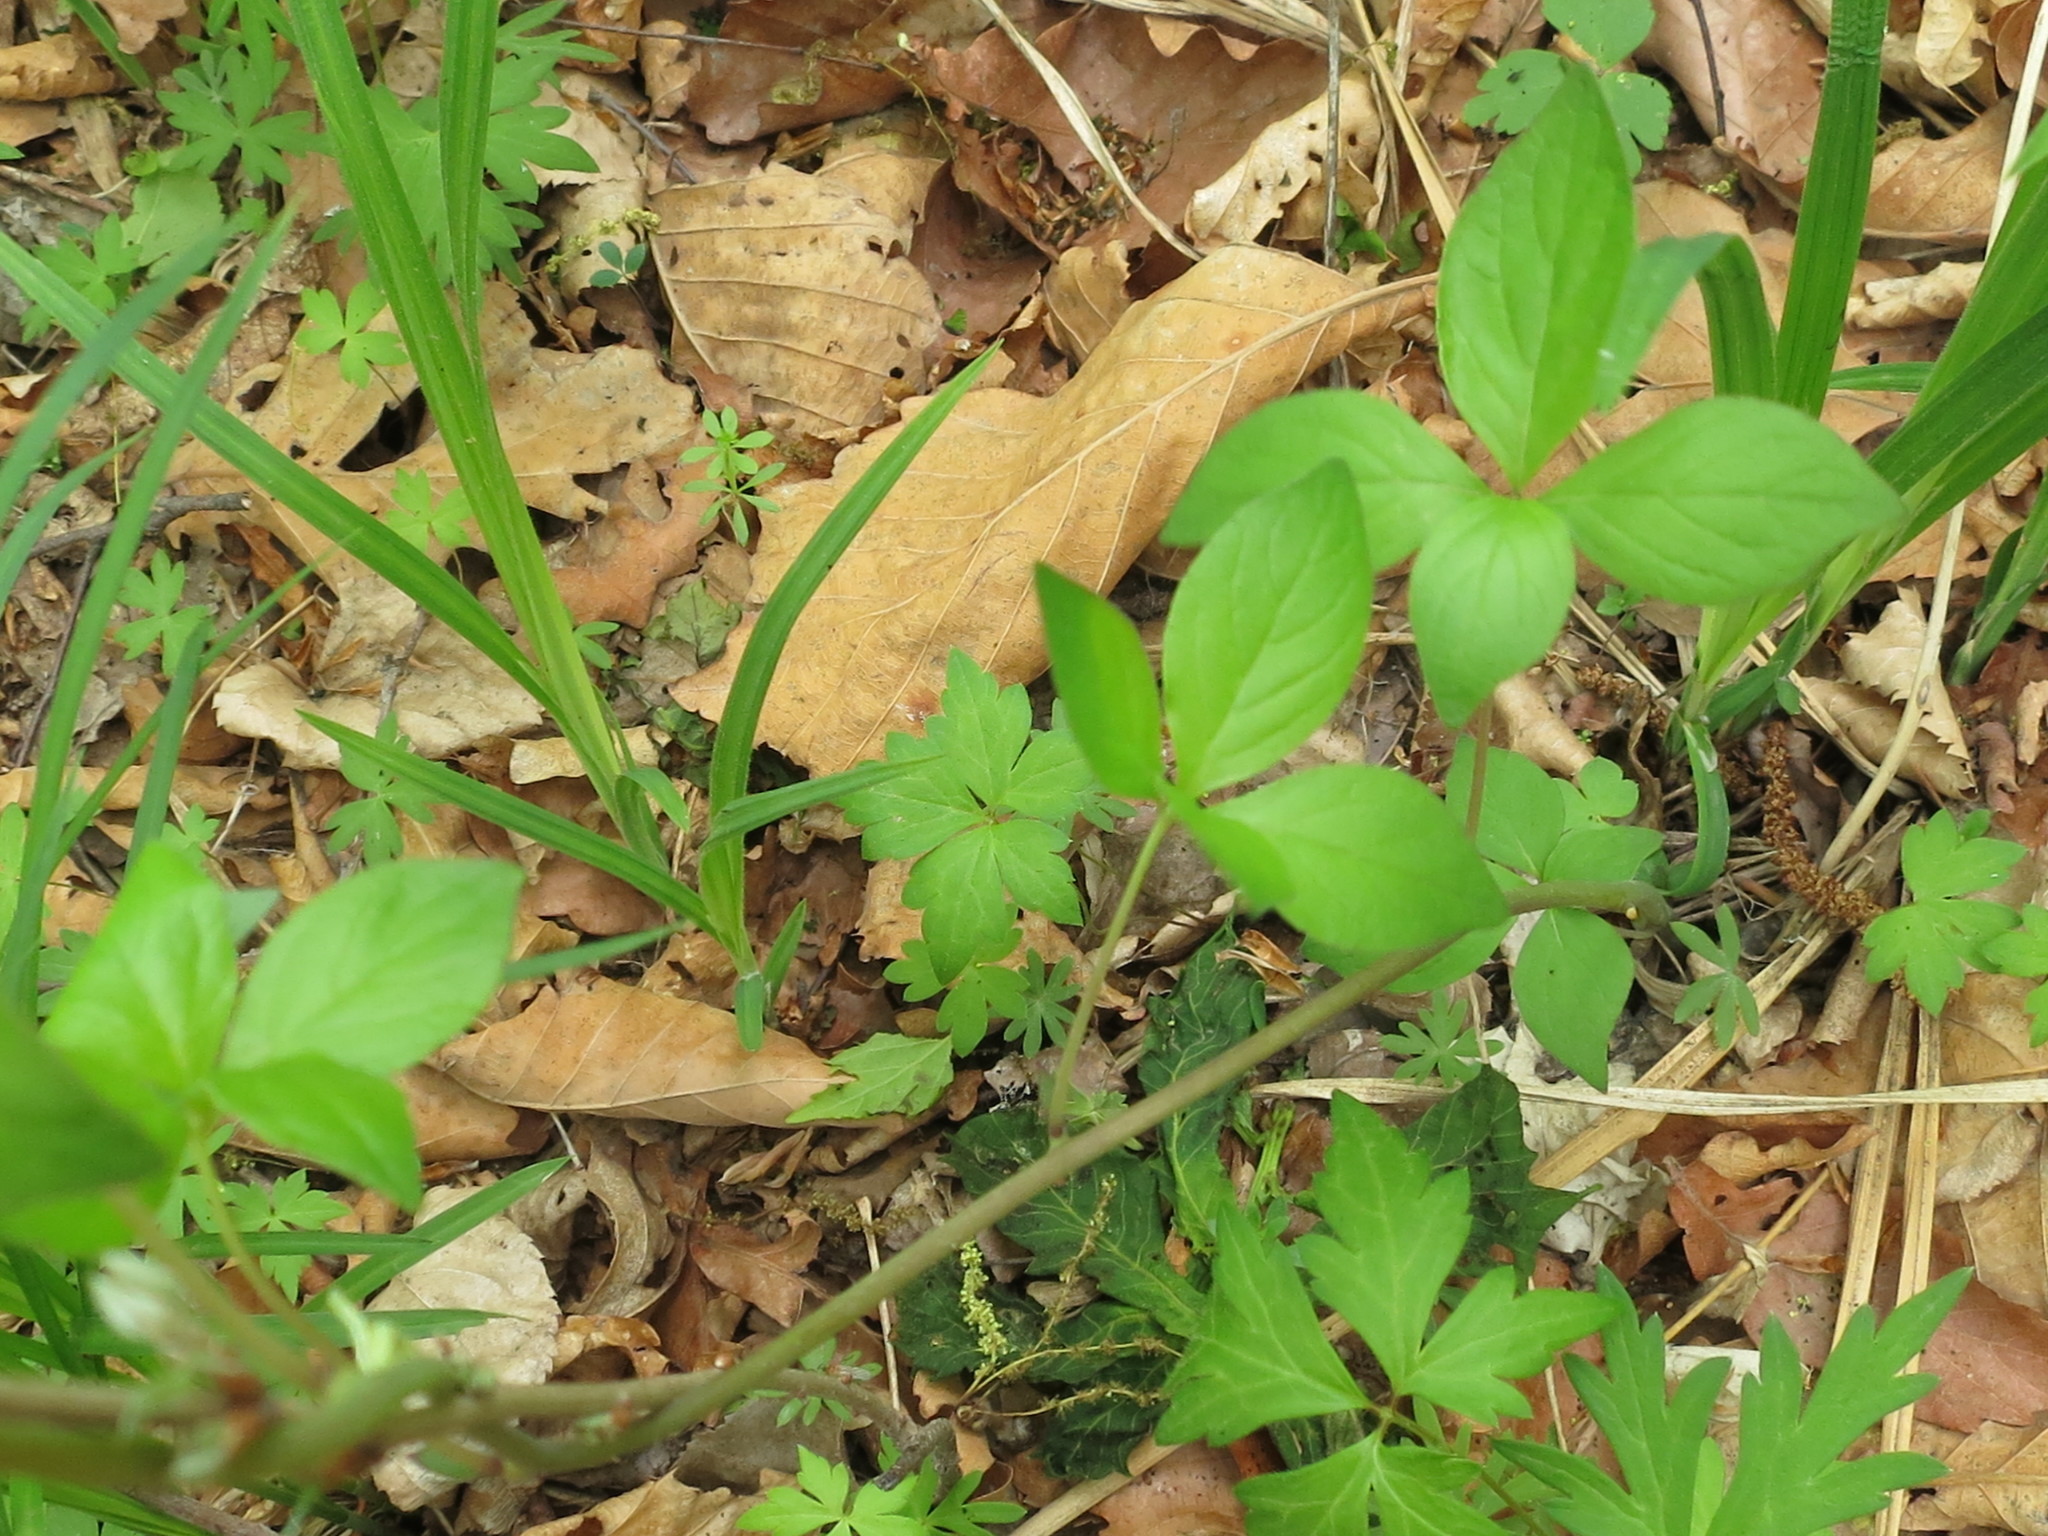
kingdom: Plantae
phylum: Tracheophyta
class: Magnoliopsida
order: Asterales
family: Campanulaceae
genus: Codonopsis
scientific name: Codonopsis lanceolata
